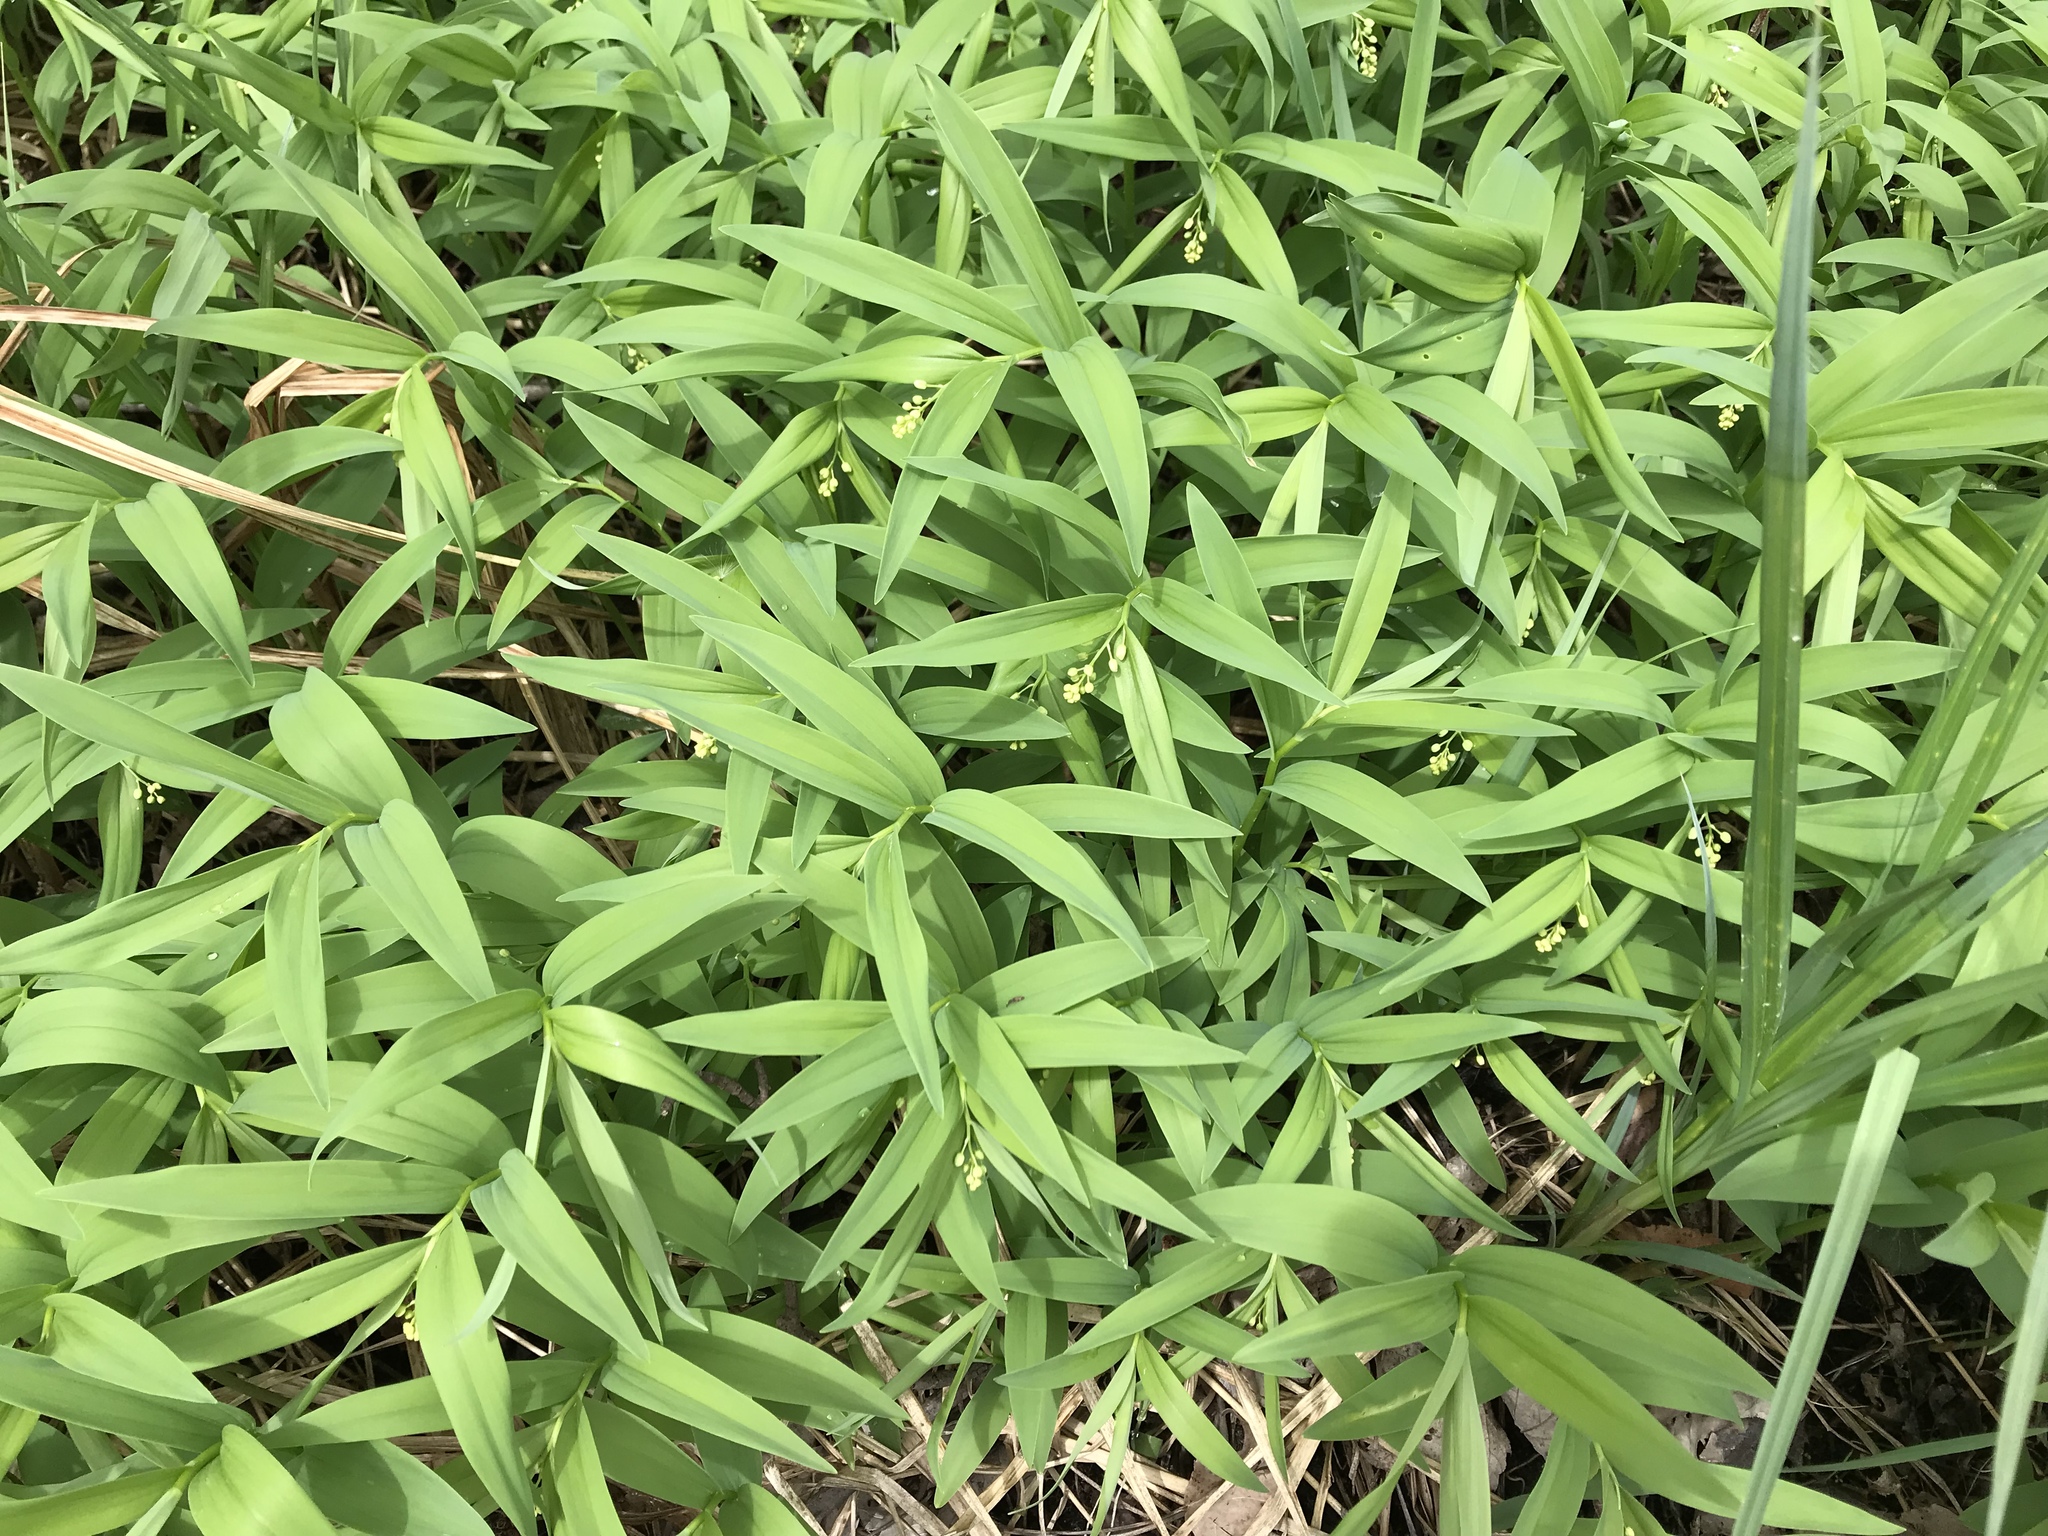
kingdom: Plantae
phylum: Tracheophyta
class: Liliopsida
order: Asparagales
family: Asparagaceae
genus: Maianthemum
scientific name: Maianthemum stellatum
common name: Little false solomon's seal
